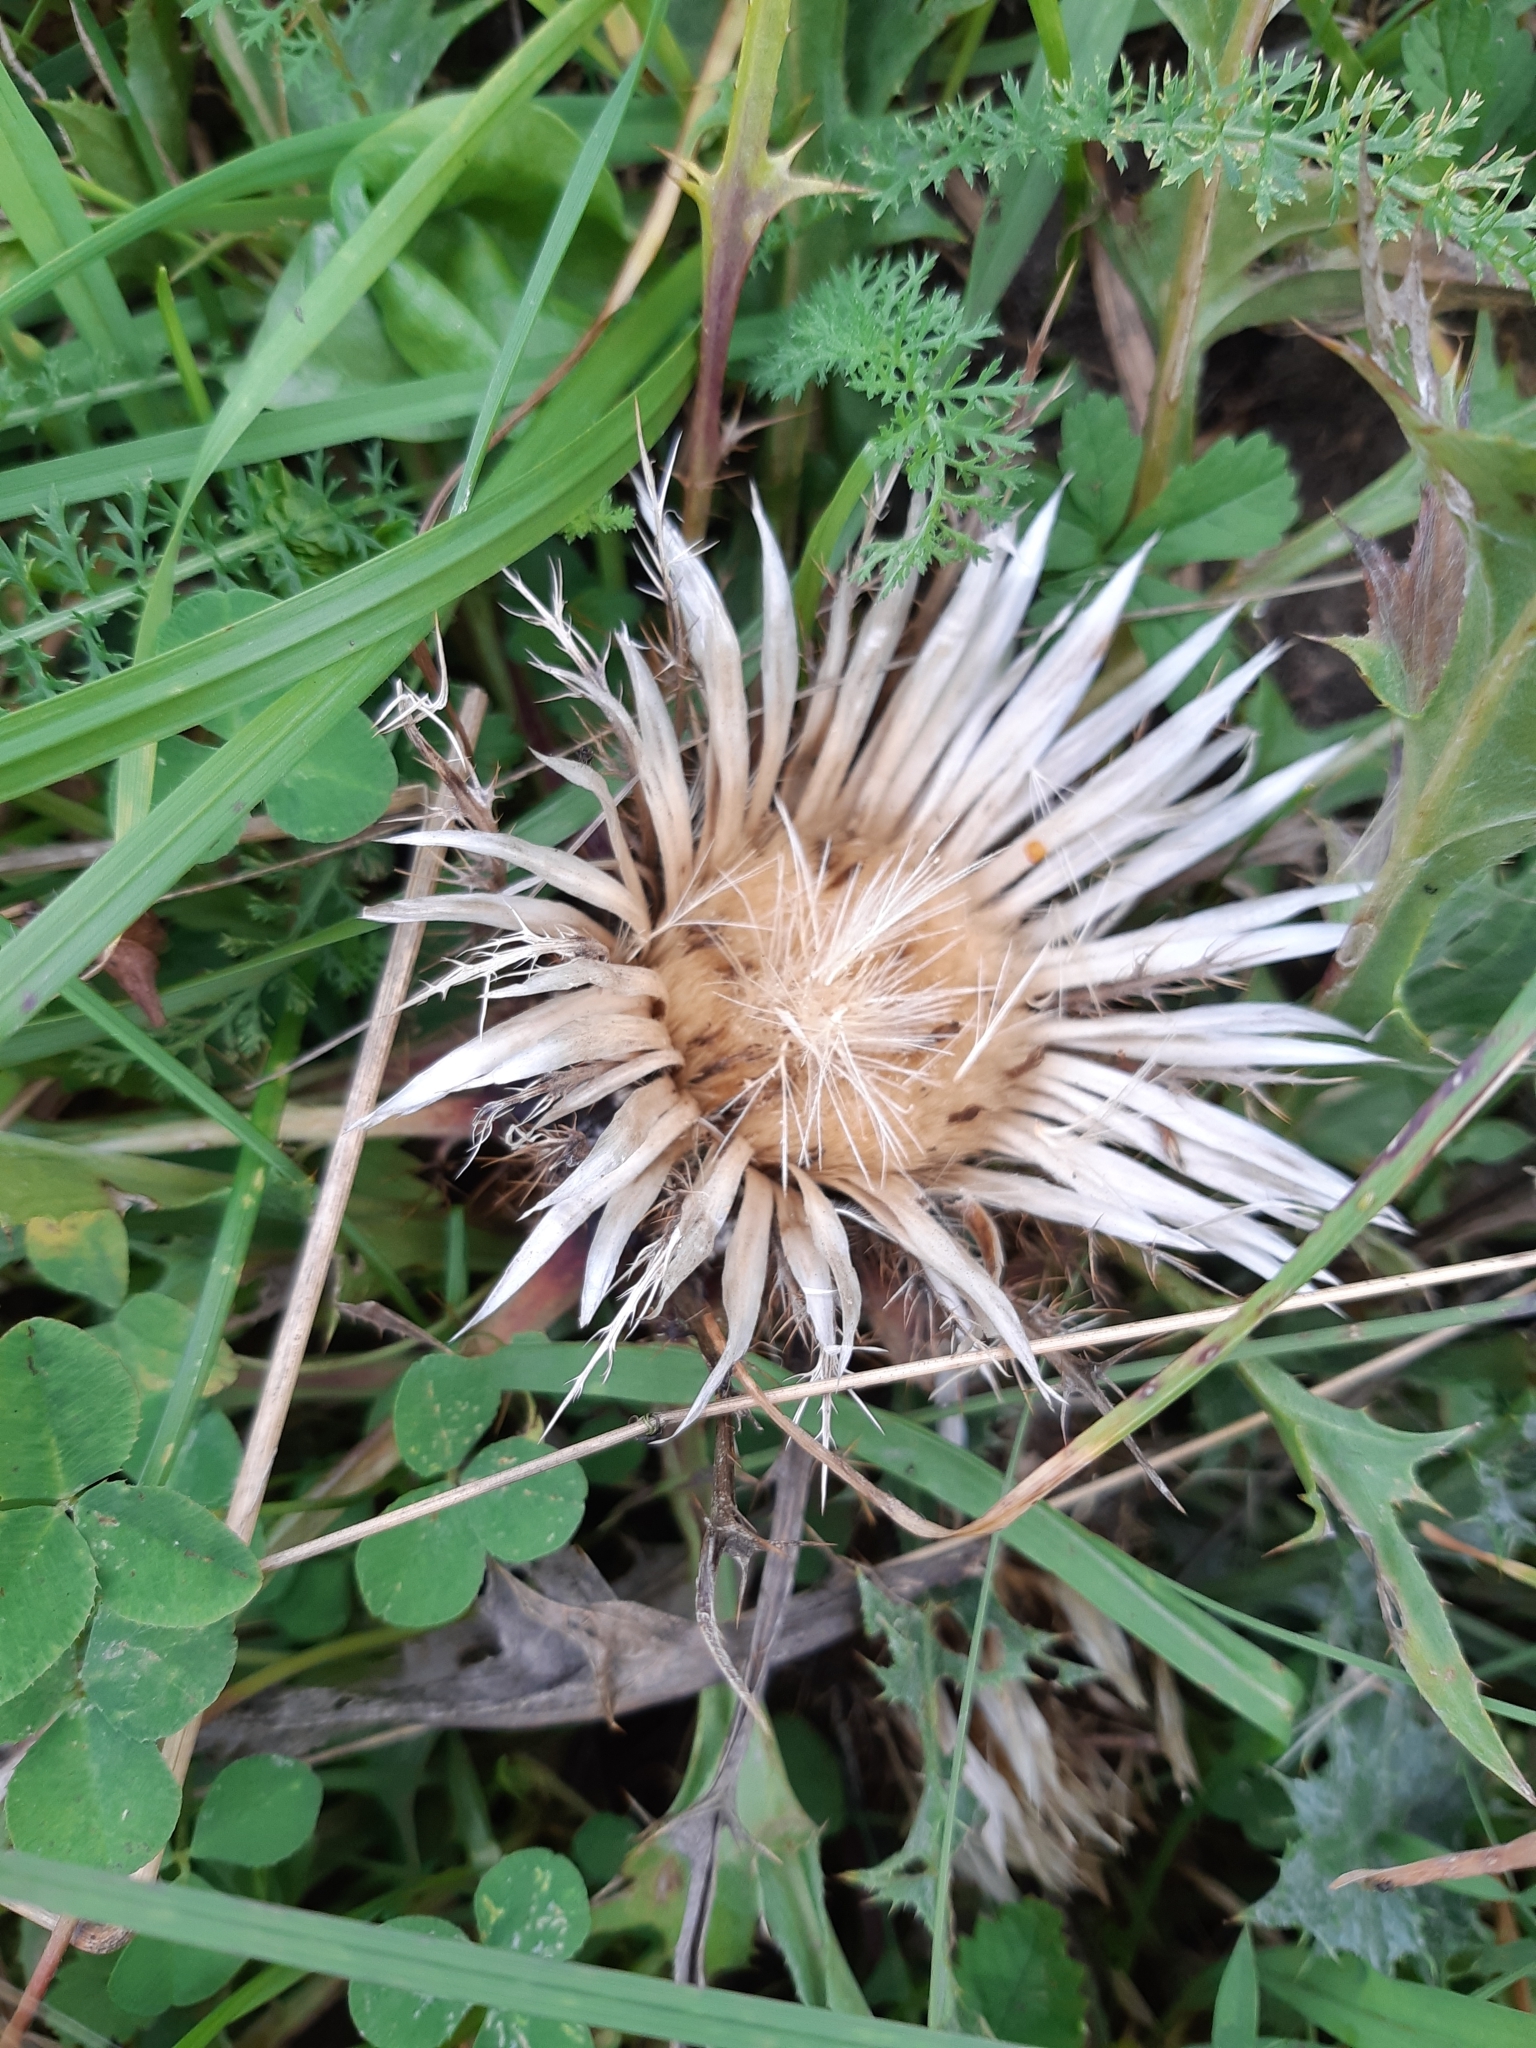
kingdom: Plantae
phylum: Tracheophyta
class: Magnoliopsida
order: Asterales
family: Asteraceae
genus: Carlina
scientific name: Carlina acaulis
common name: Stemless carline thistle
